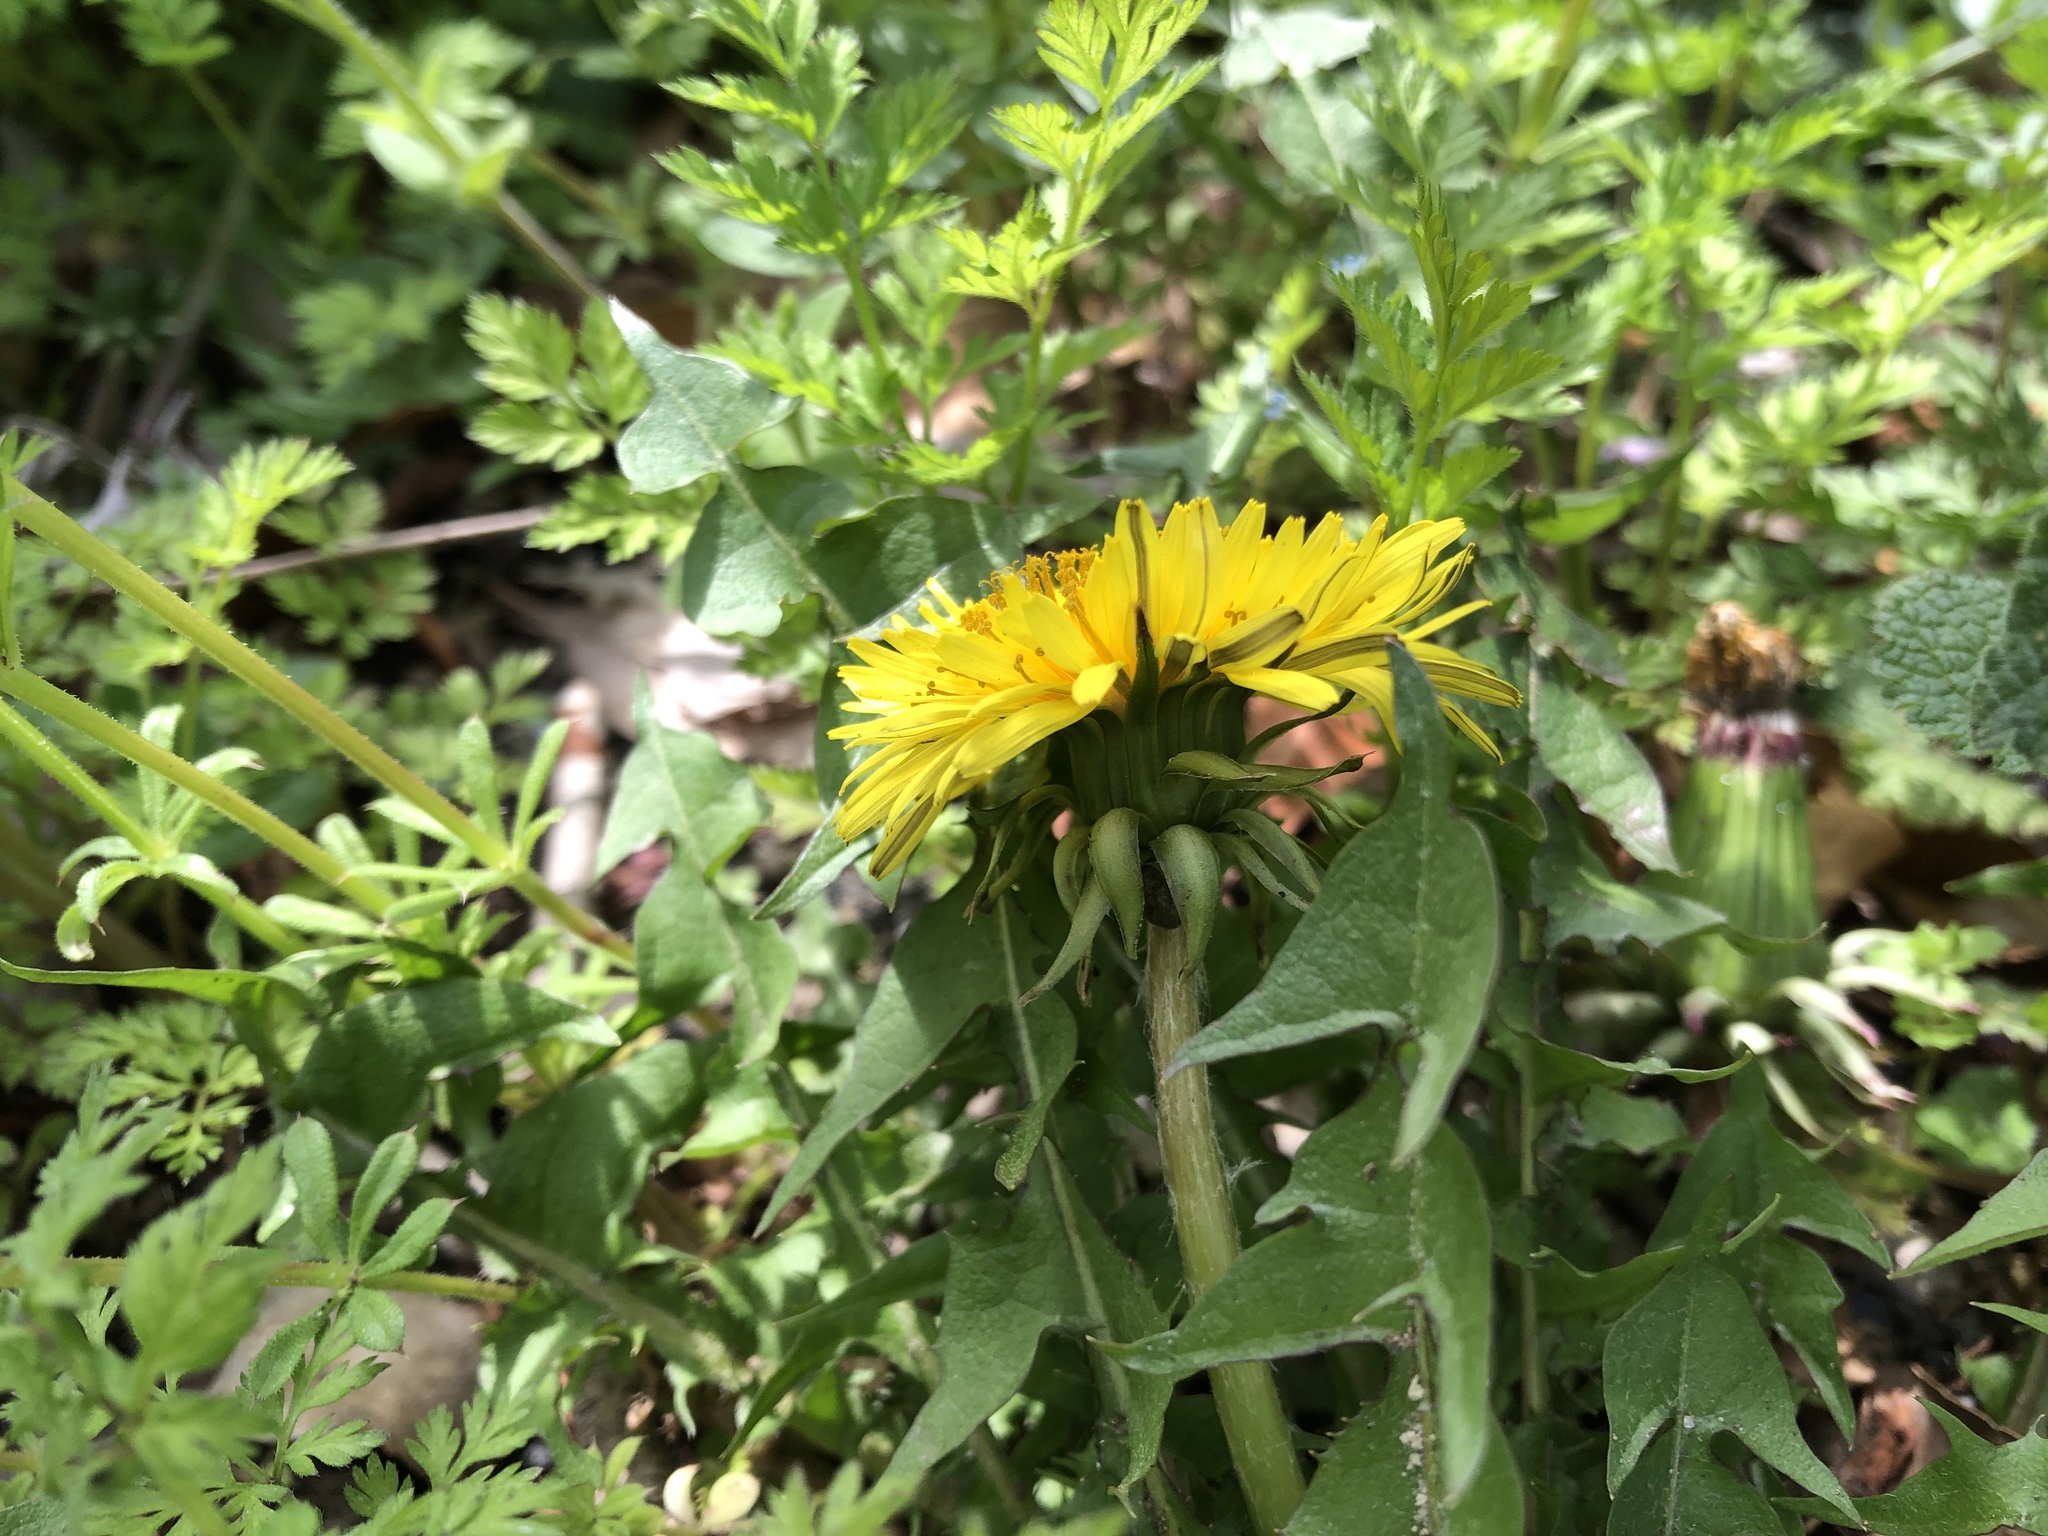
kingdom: Plantae
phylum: Tracheophyta
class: Magnoliopsida
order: Asterales
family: Asteraceae
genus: Taraxacum
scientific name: Taraxacum officinale
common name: Common dandelion
